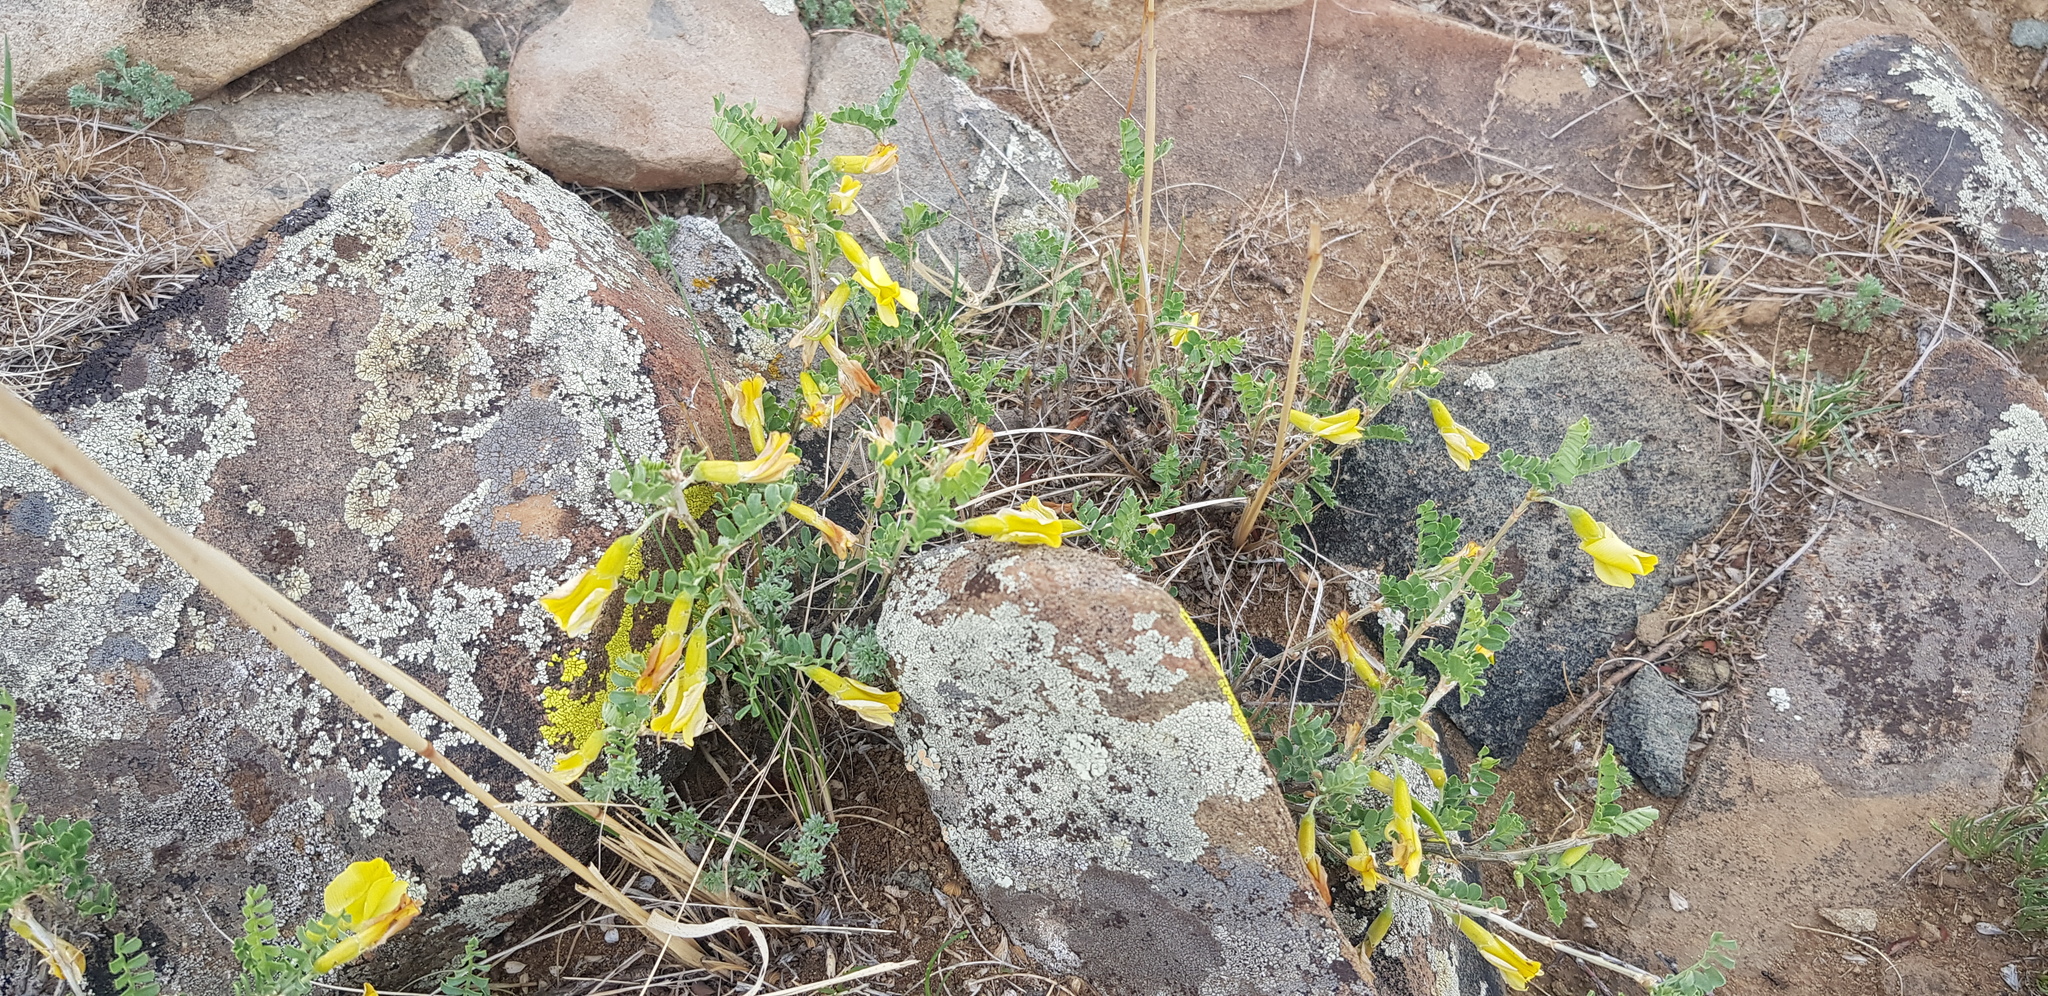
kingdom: Plantae
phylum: Tracheophyta
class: Magnoliopsida
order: Fabales
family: Fabaceae
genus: Caragana
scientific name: Caragana microphylla
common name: Littleleaf peashrub
